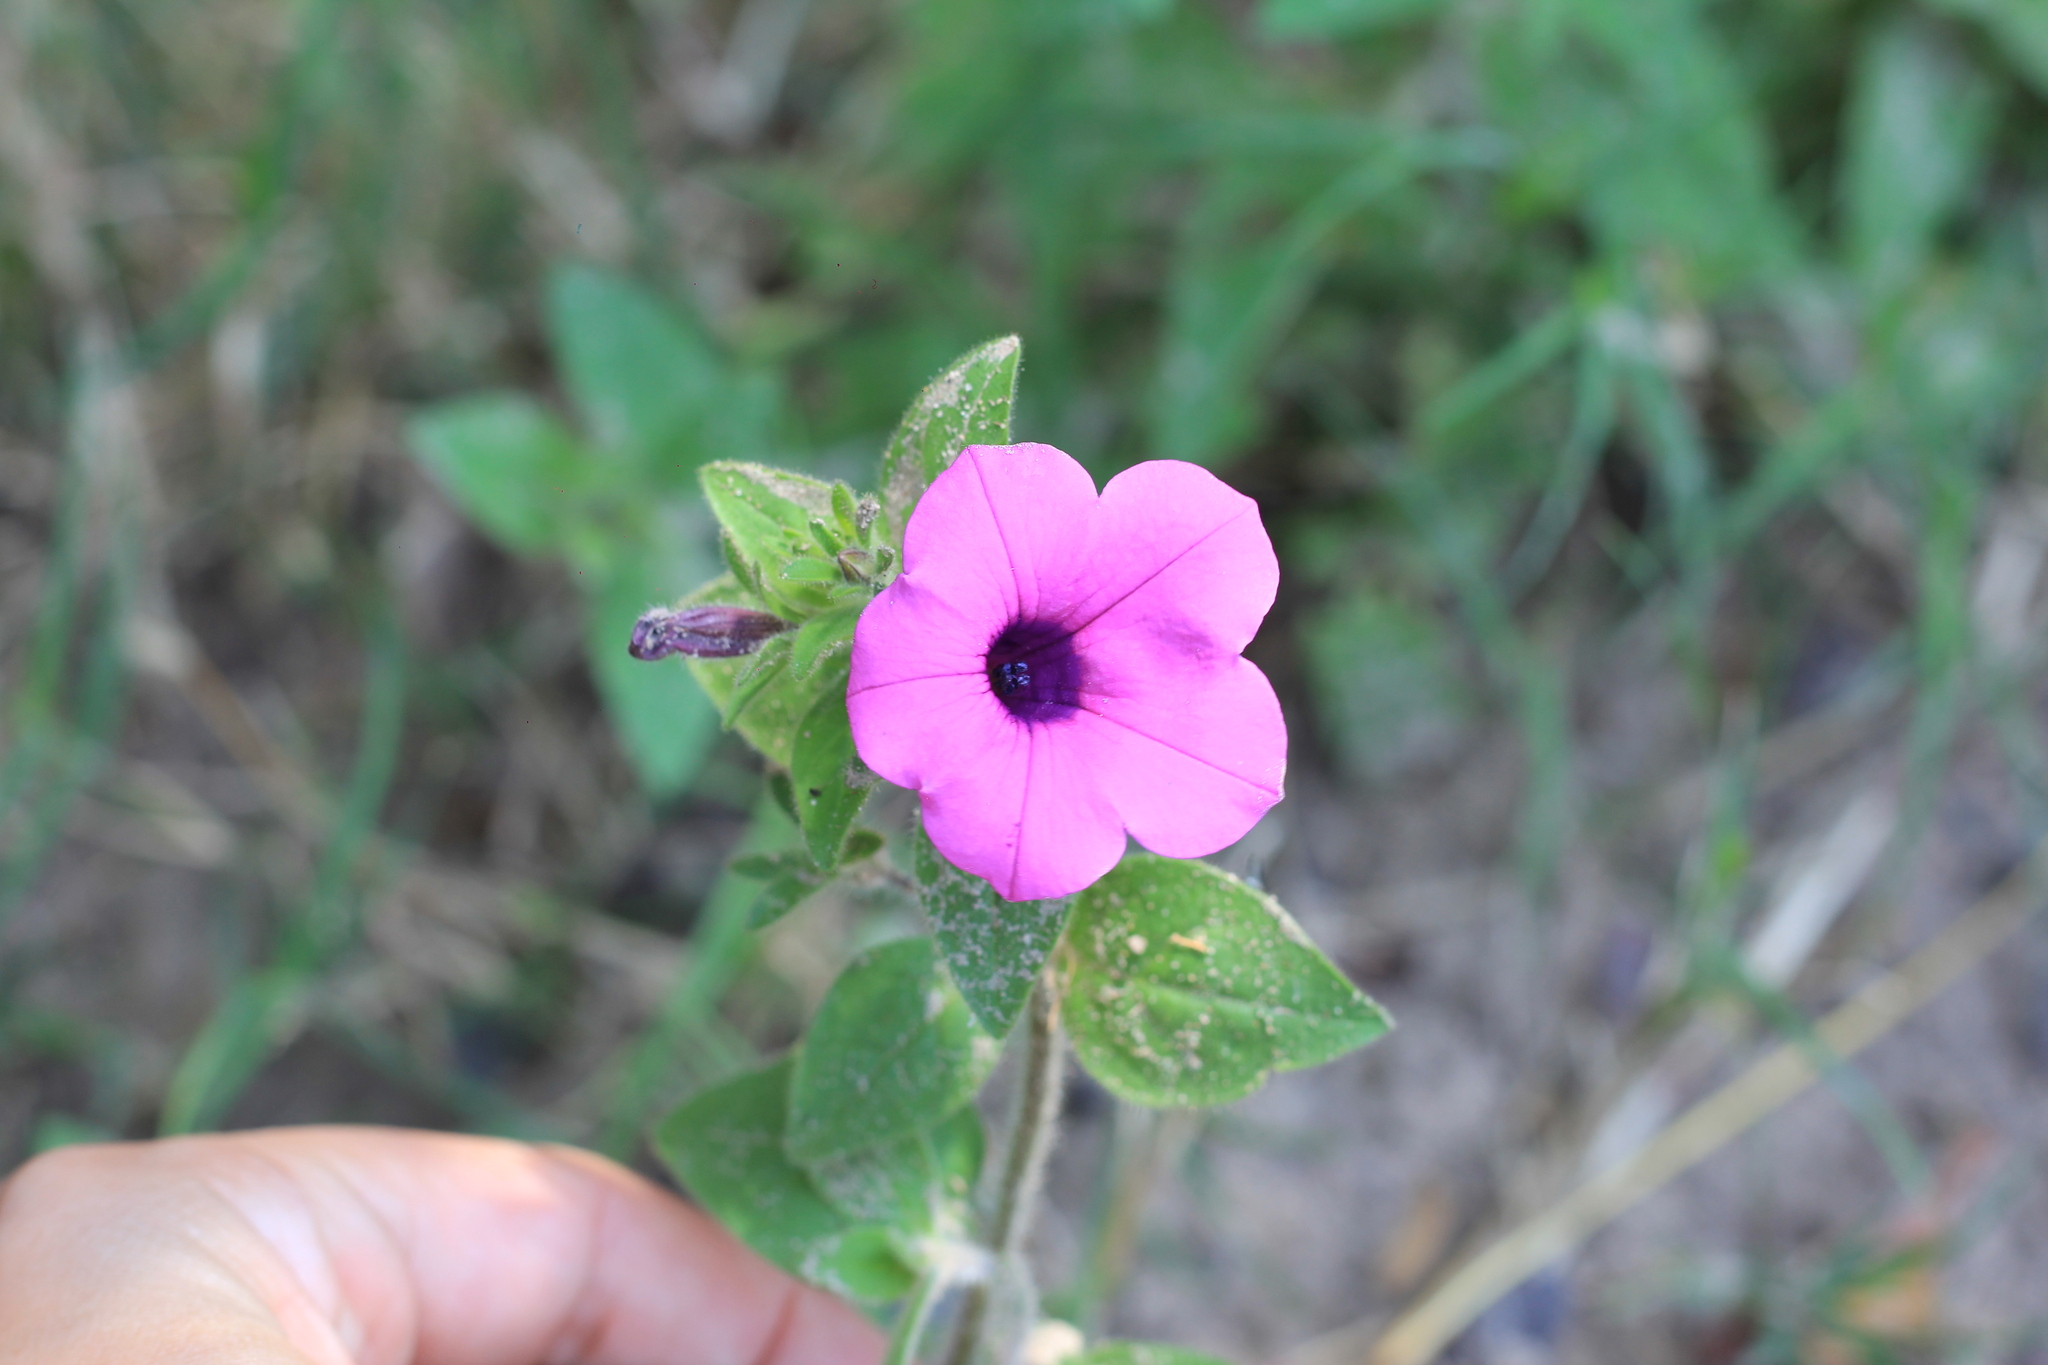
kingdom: Plantae
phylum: Tracheophyta
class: Magnoliopsida
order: Solanales
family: Solanaceae
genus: Petunia
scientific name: Petunia integrifolia
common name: Violet-flower petunia
